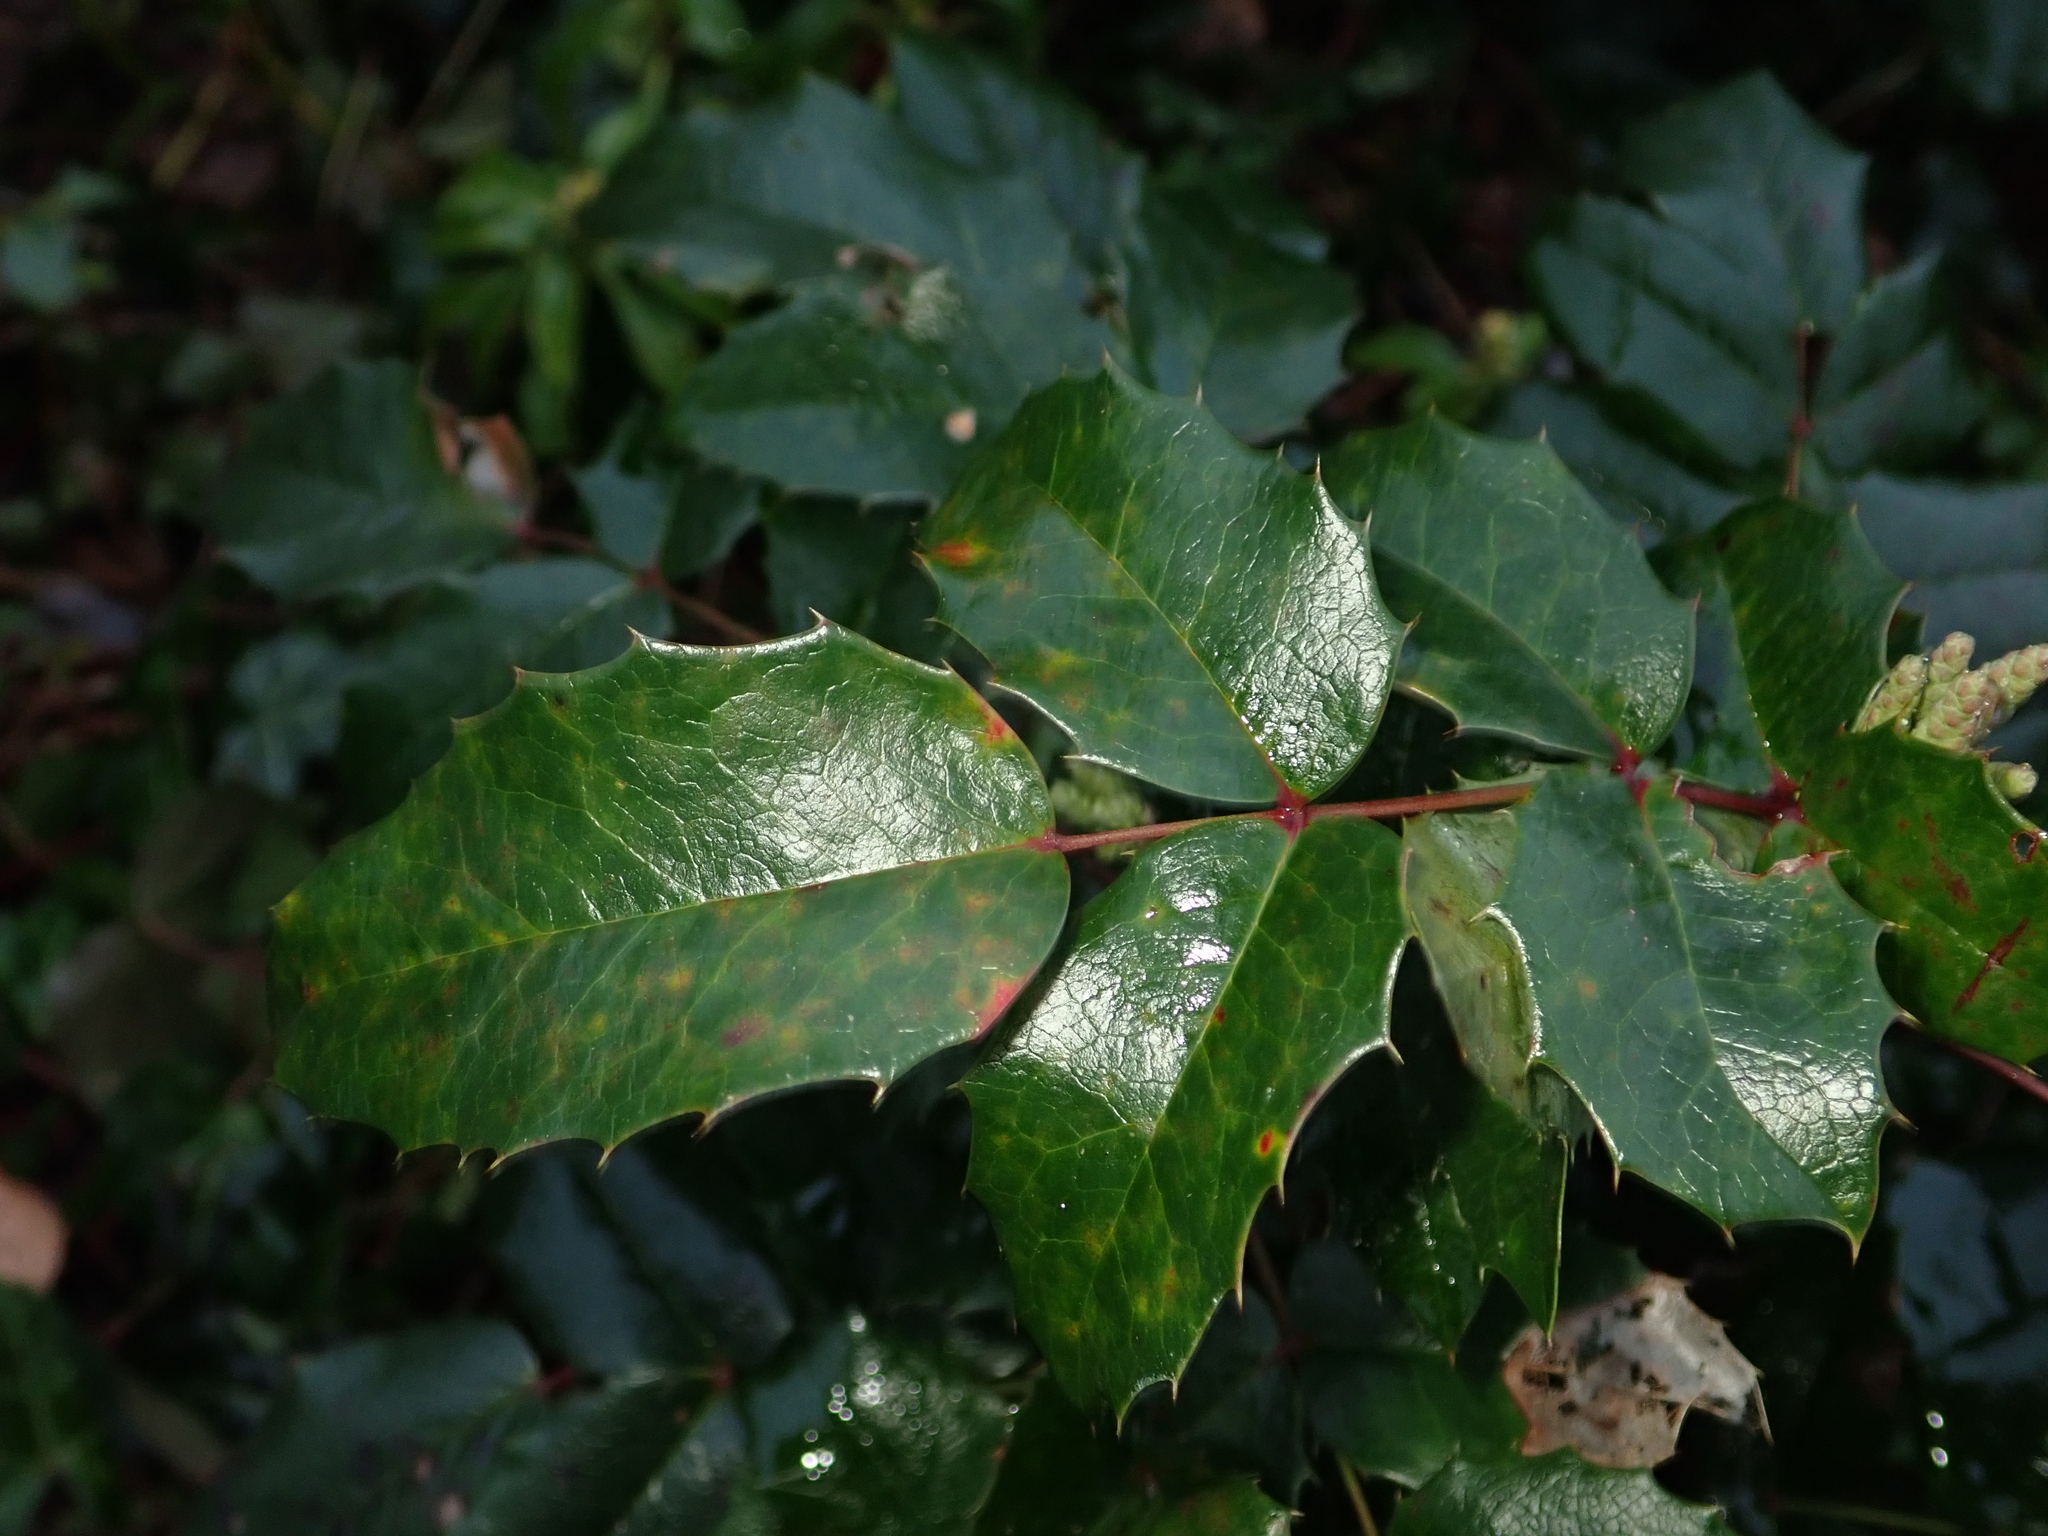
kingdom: Plantae
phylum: Tracheophyta
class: Magnoliopsida
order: Ranunculales
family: Berberidaceae
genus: Mahonia
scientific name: Mahonia aquifolium
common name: Oregon-grape
